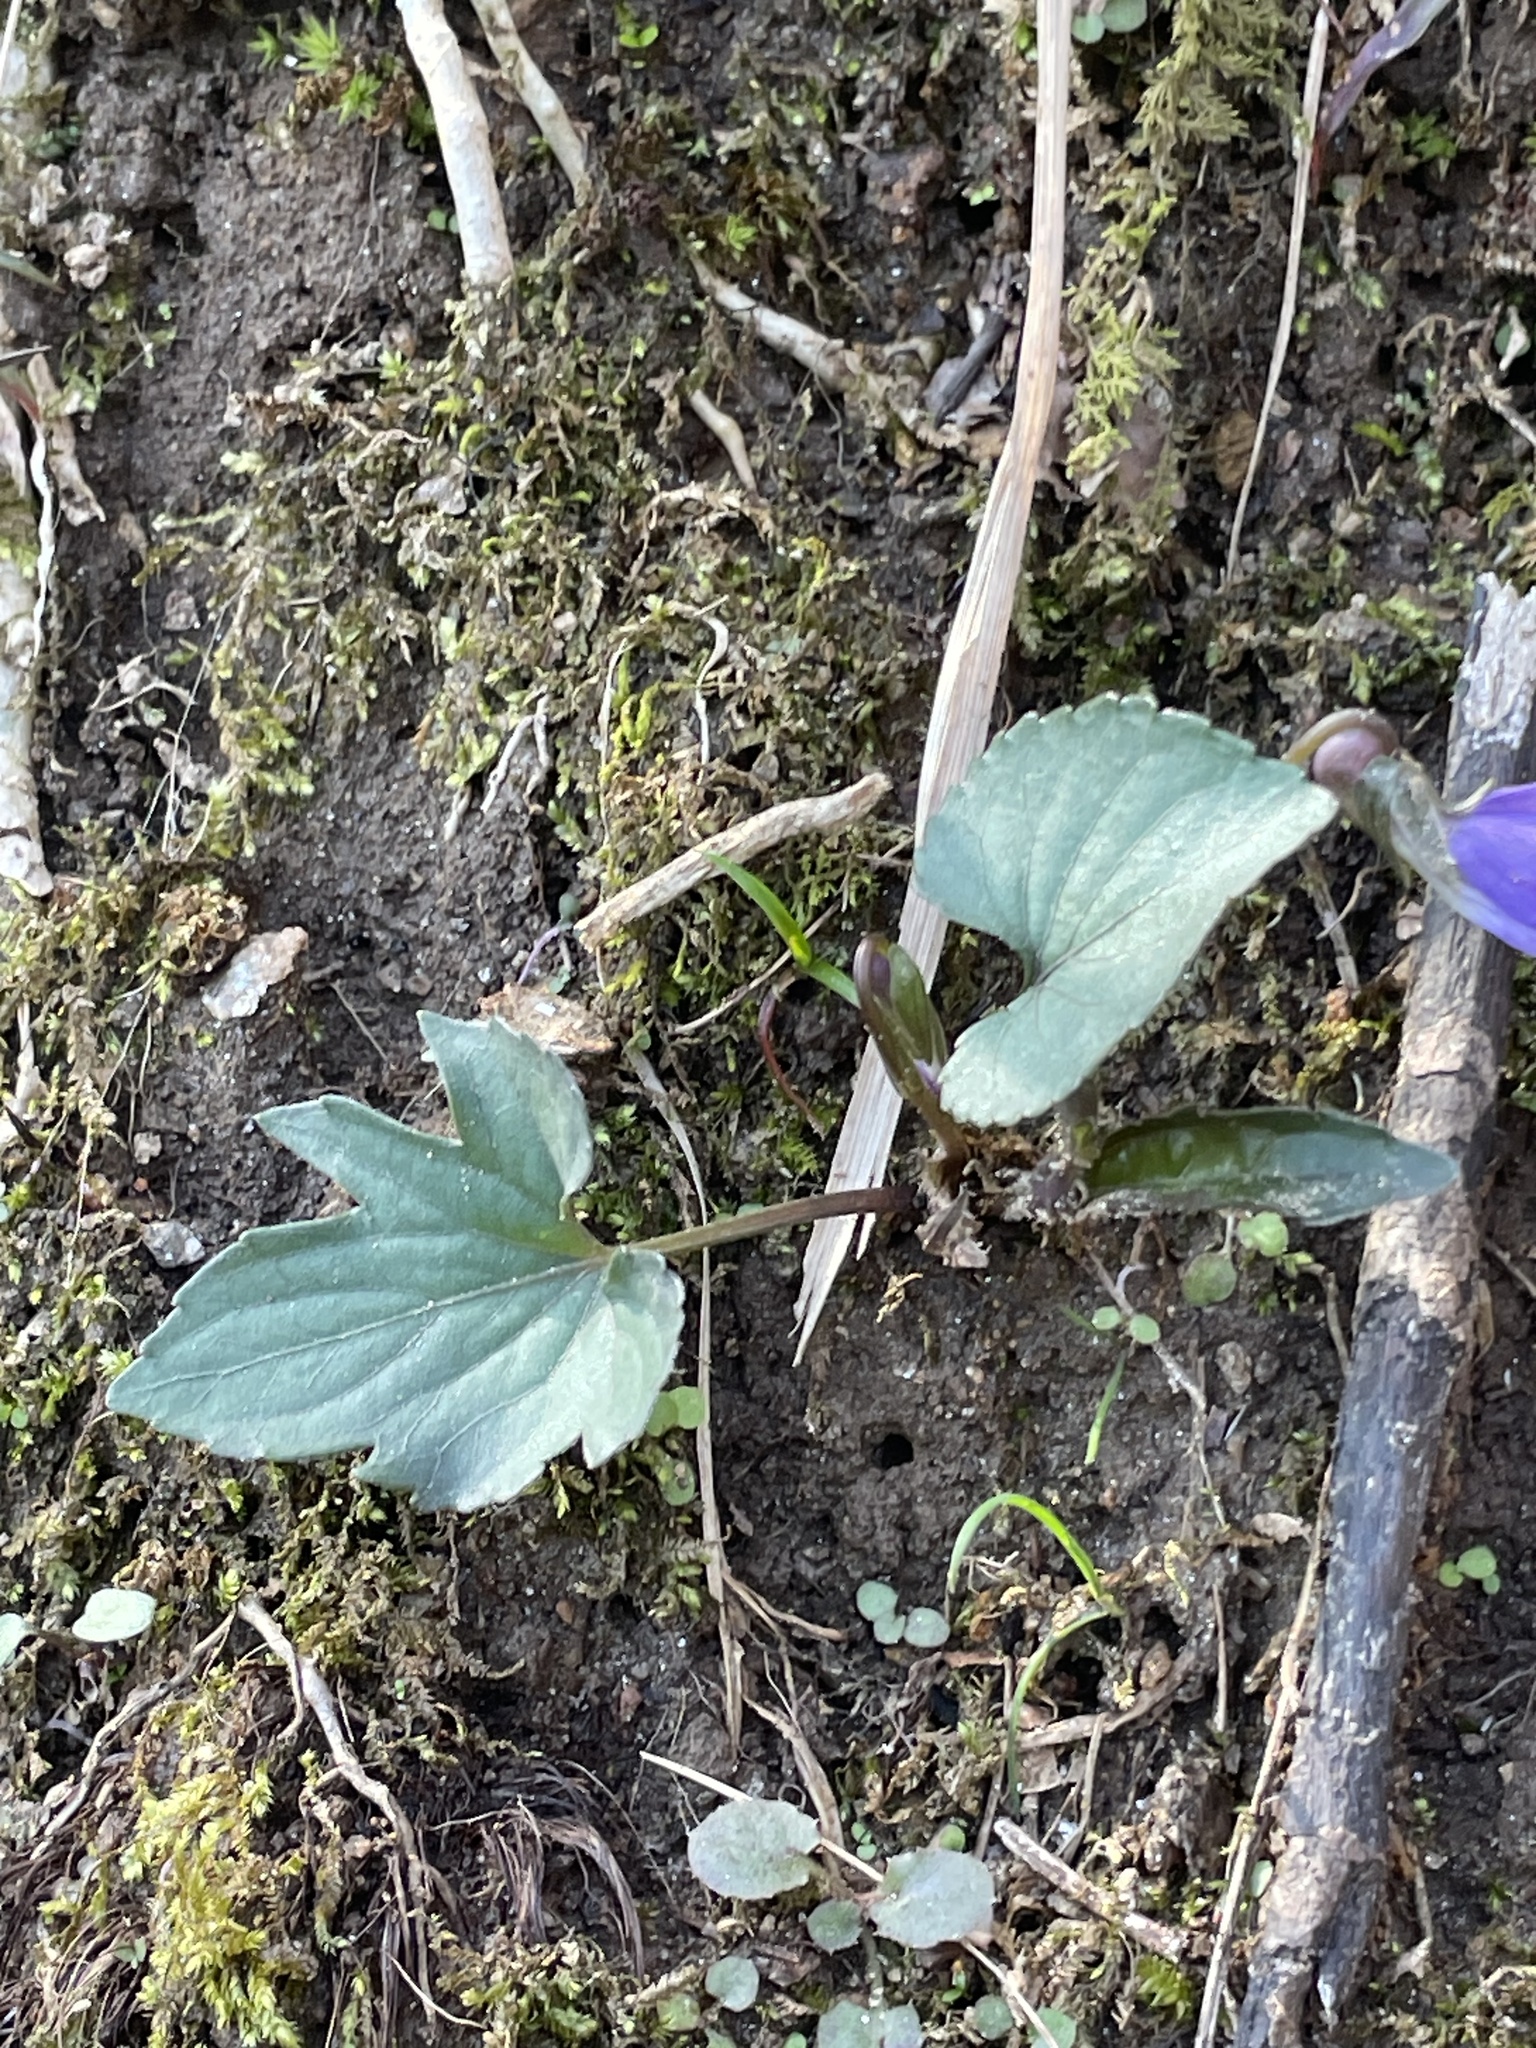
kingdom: Plantae
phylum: Tracheophyta
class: Magnoliopsida
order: Malpighiales
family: Violaceae
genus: Viola
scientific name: Viola palmata
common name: Early blue violet
